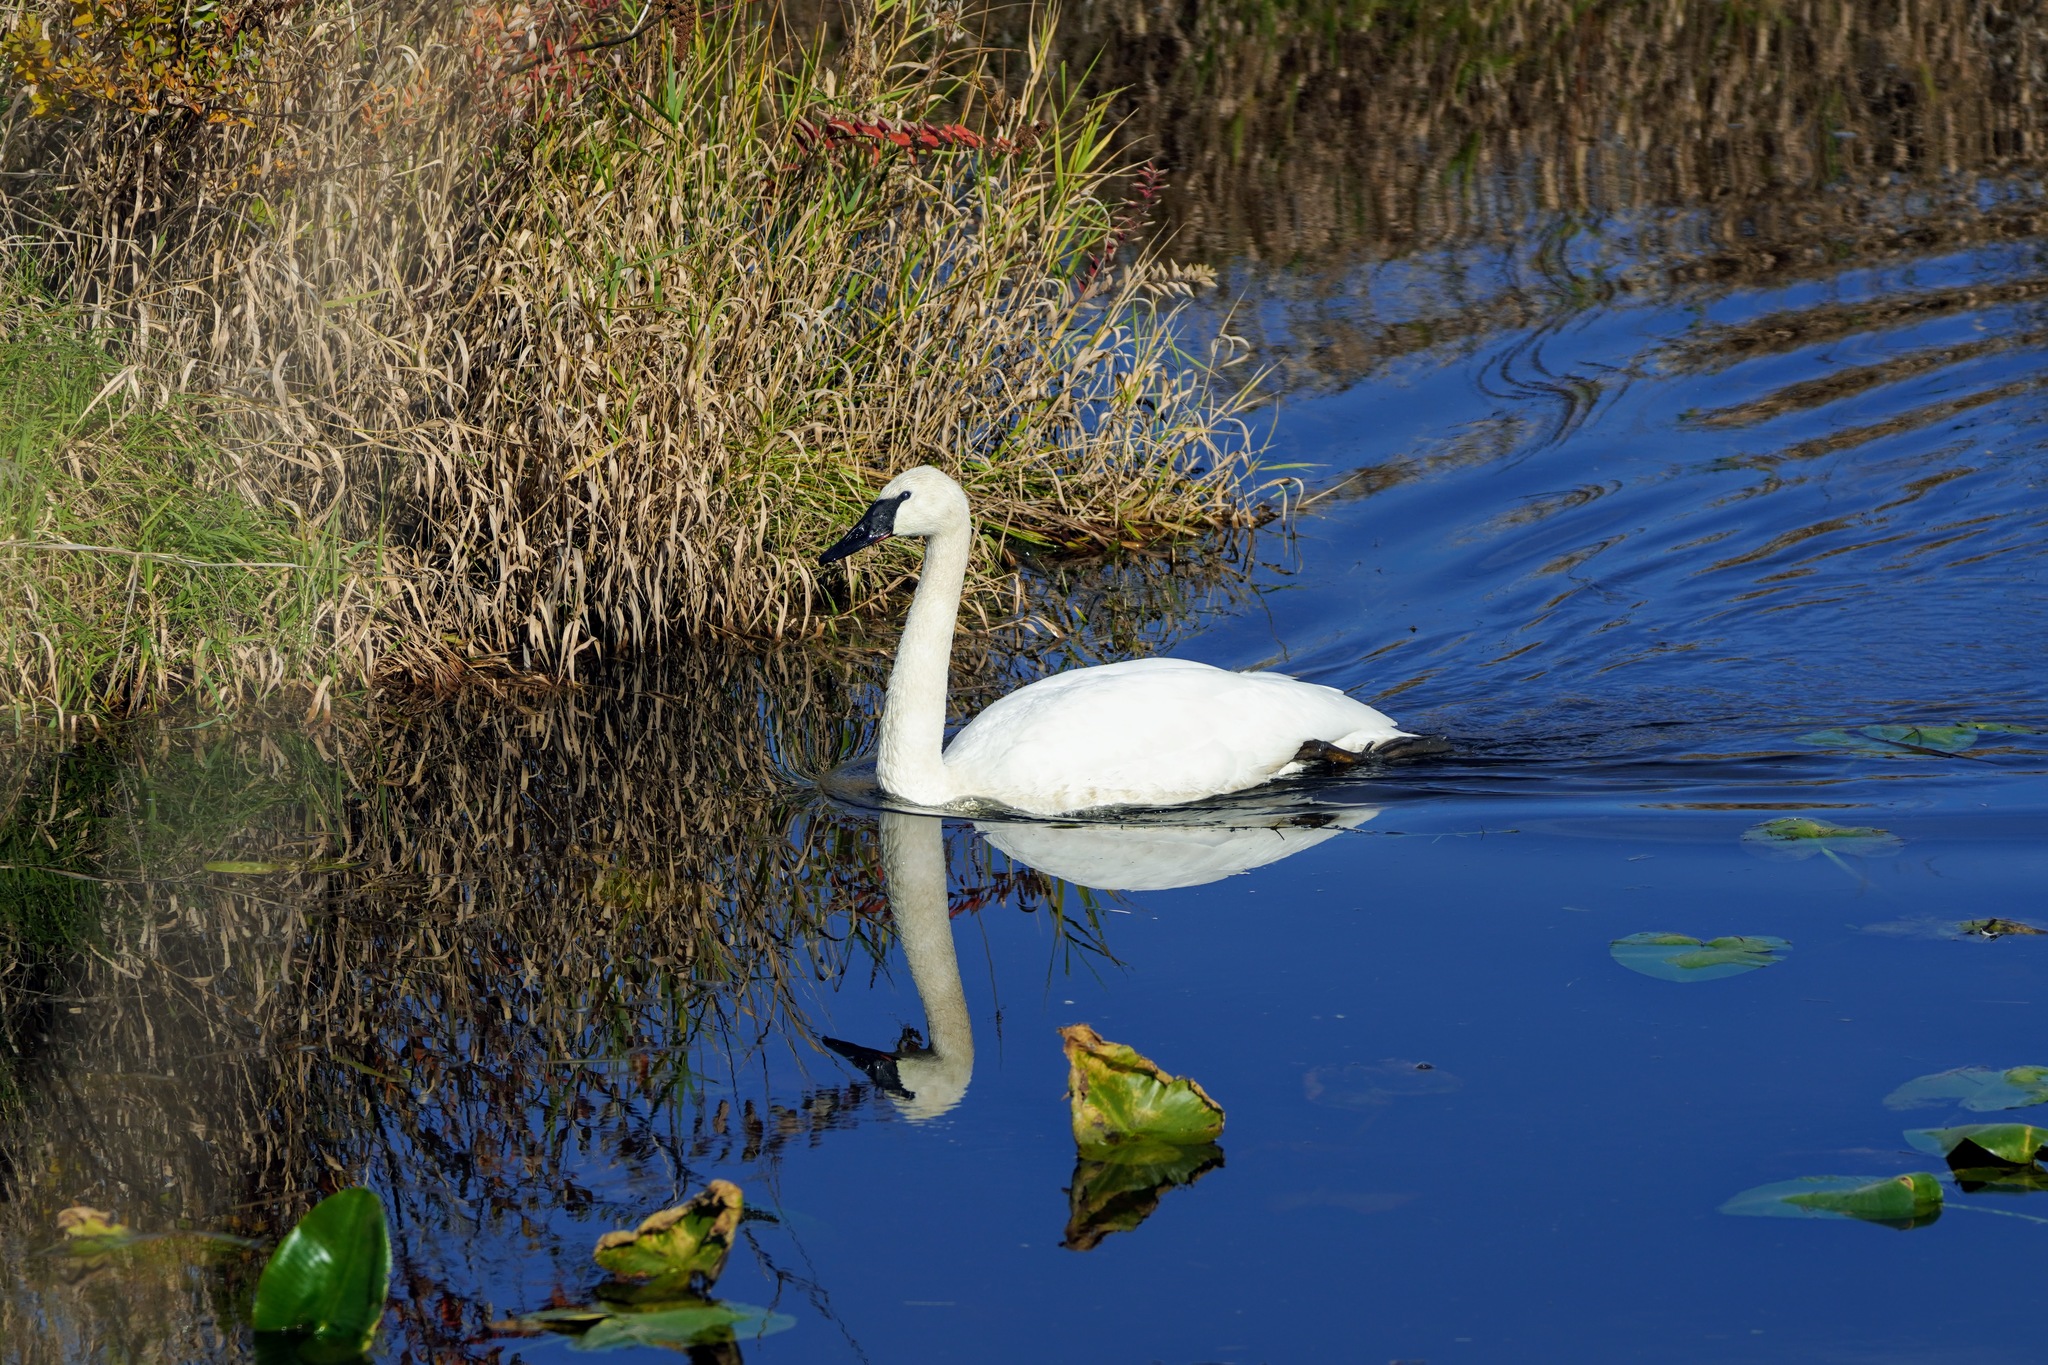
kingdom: Animalia
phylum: Chordata
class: Aves
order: Anseriformes
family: Anatidae
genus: Cygnus
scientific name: Cygnus buccinator
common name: Trumpeter swan
